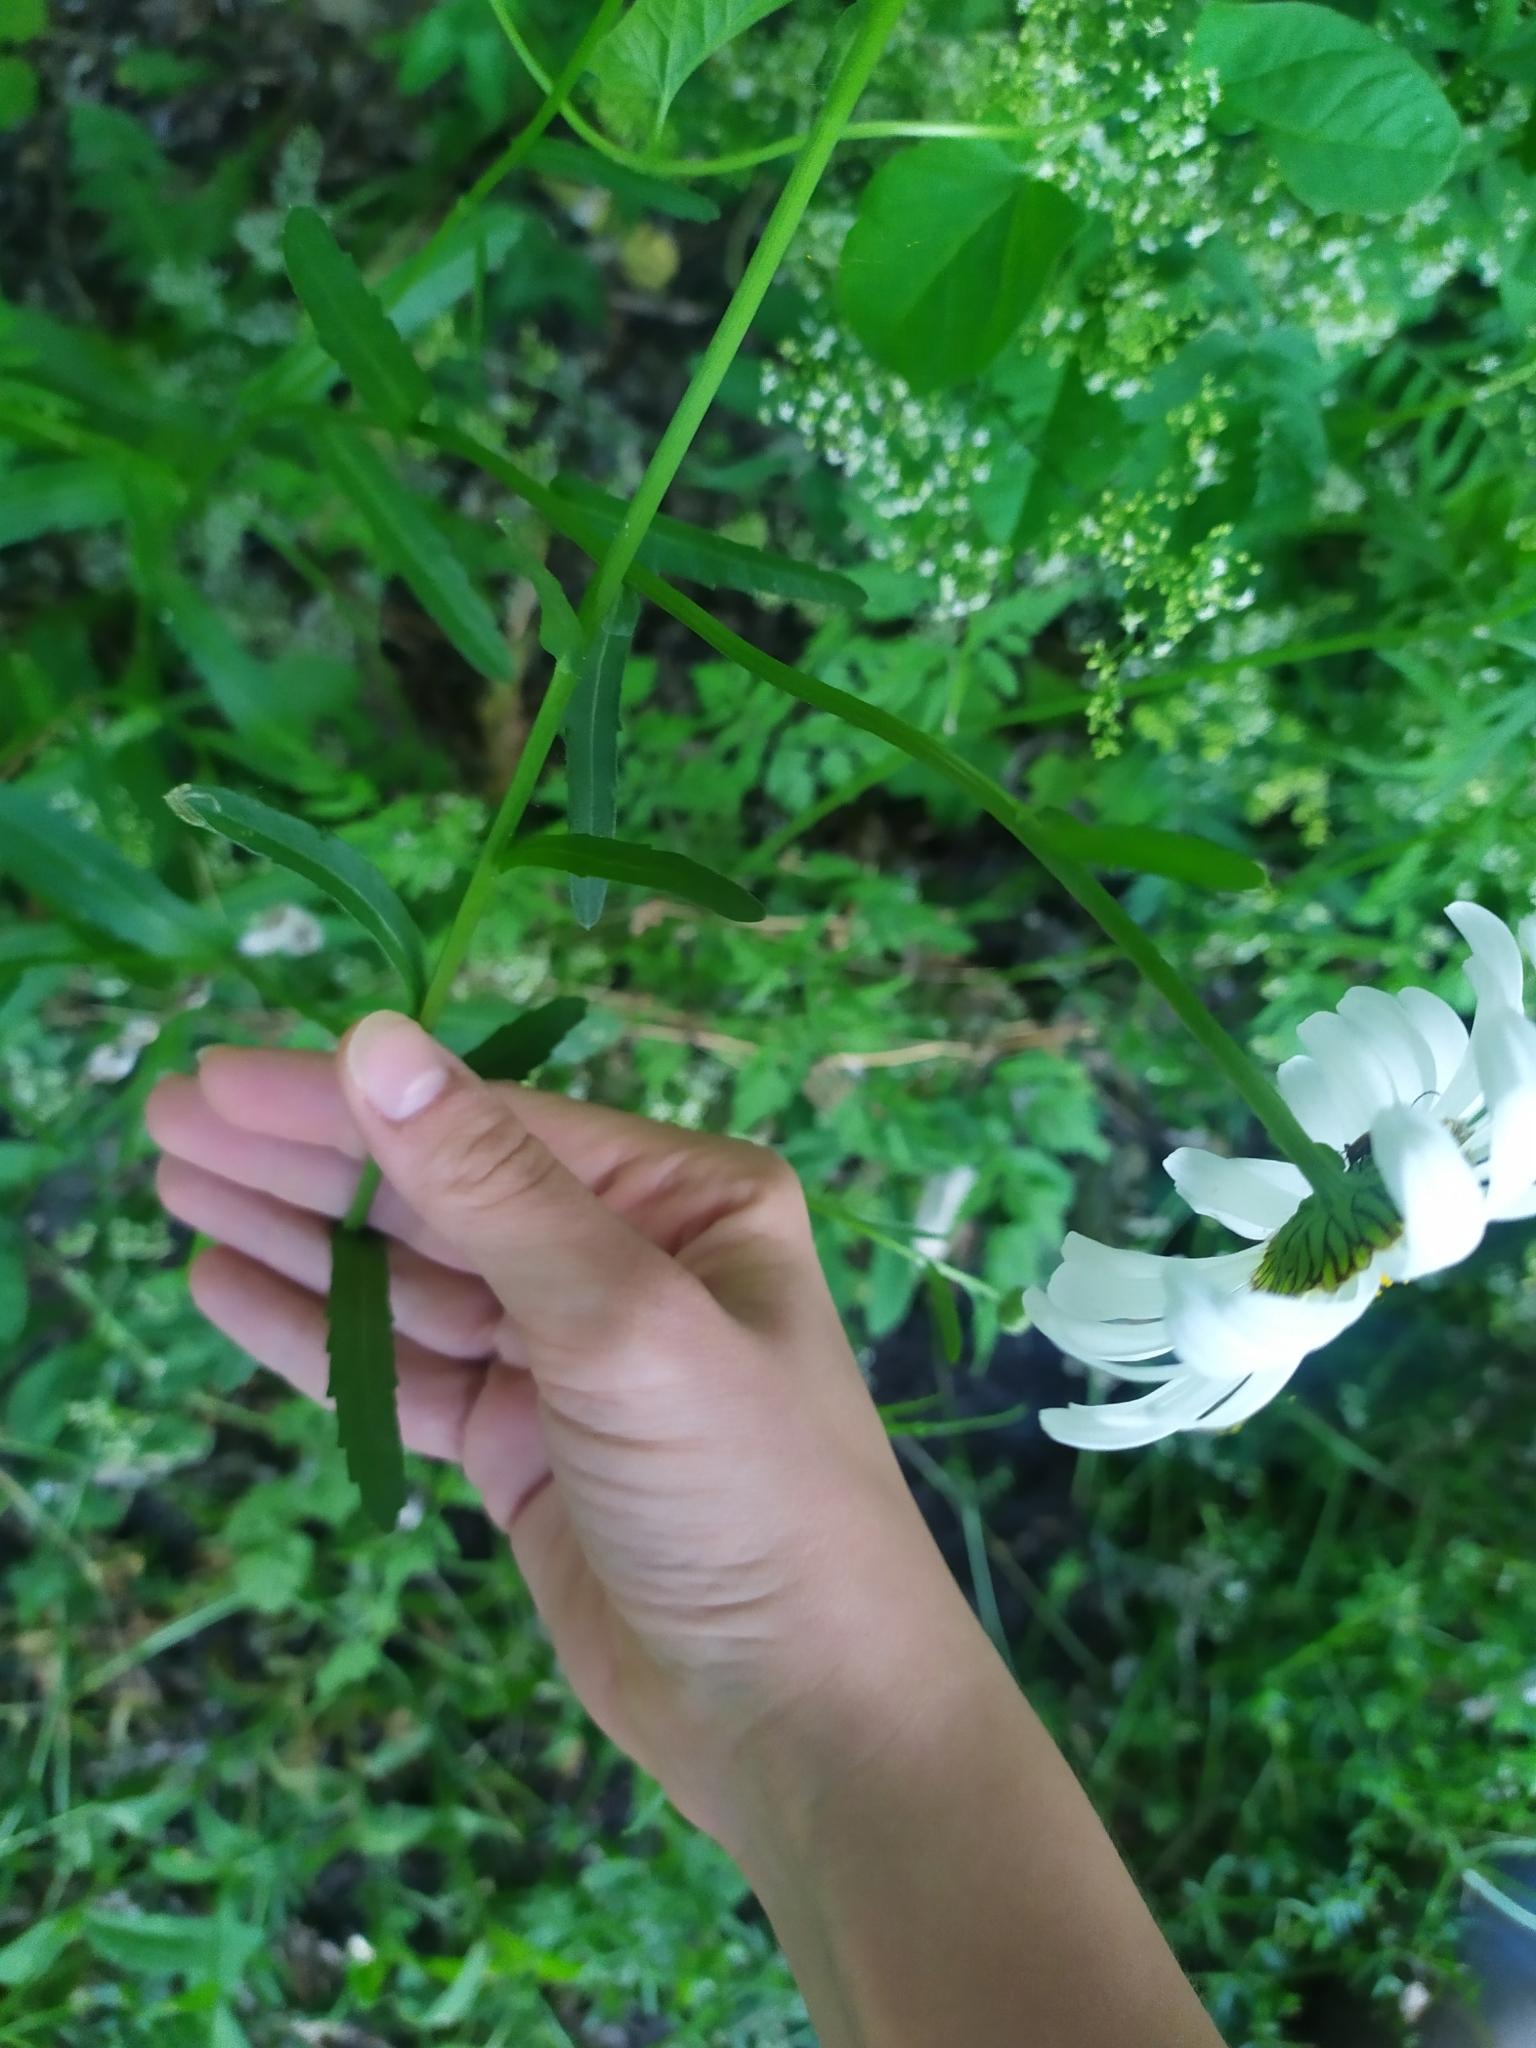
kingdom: Plantae
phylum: Tracheophyta
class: Magnoliopsida
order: Asterales
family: Asteraceae
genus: Leucanthemum
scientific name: Leucanthemum vulgare
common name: Oxeye daisy
